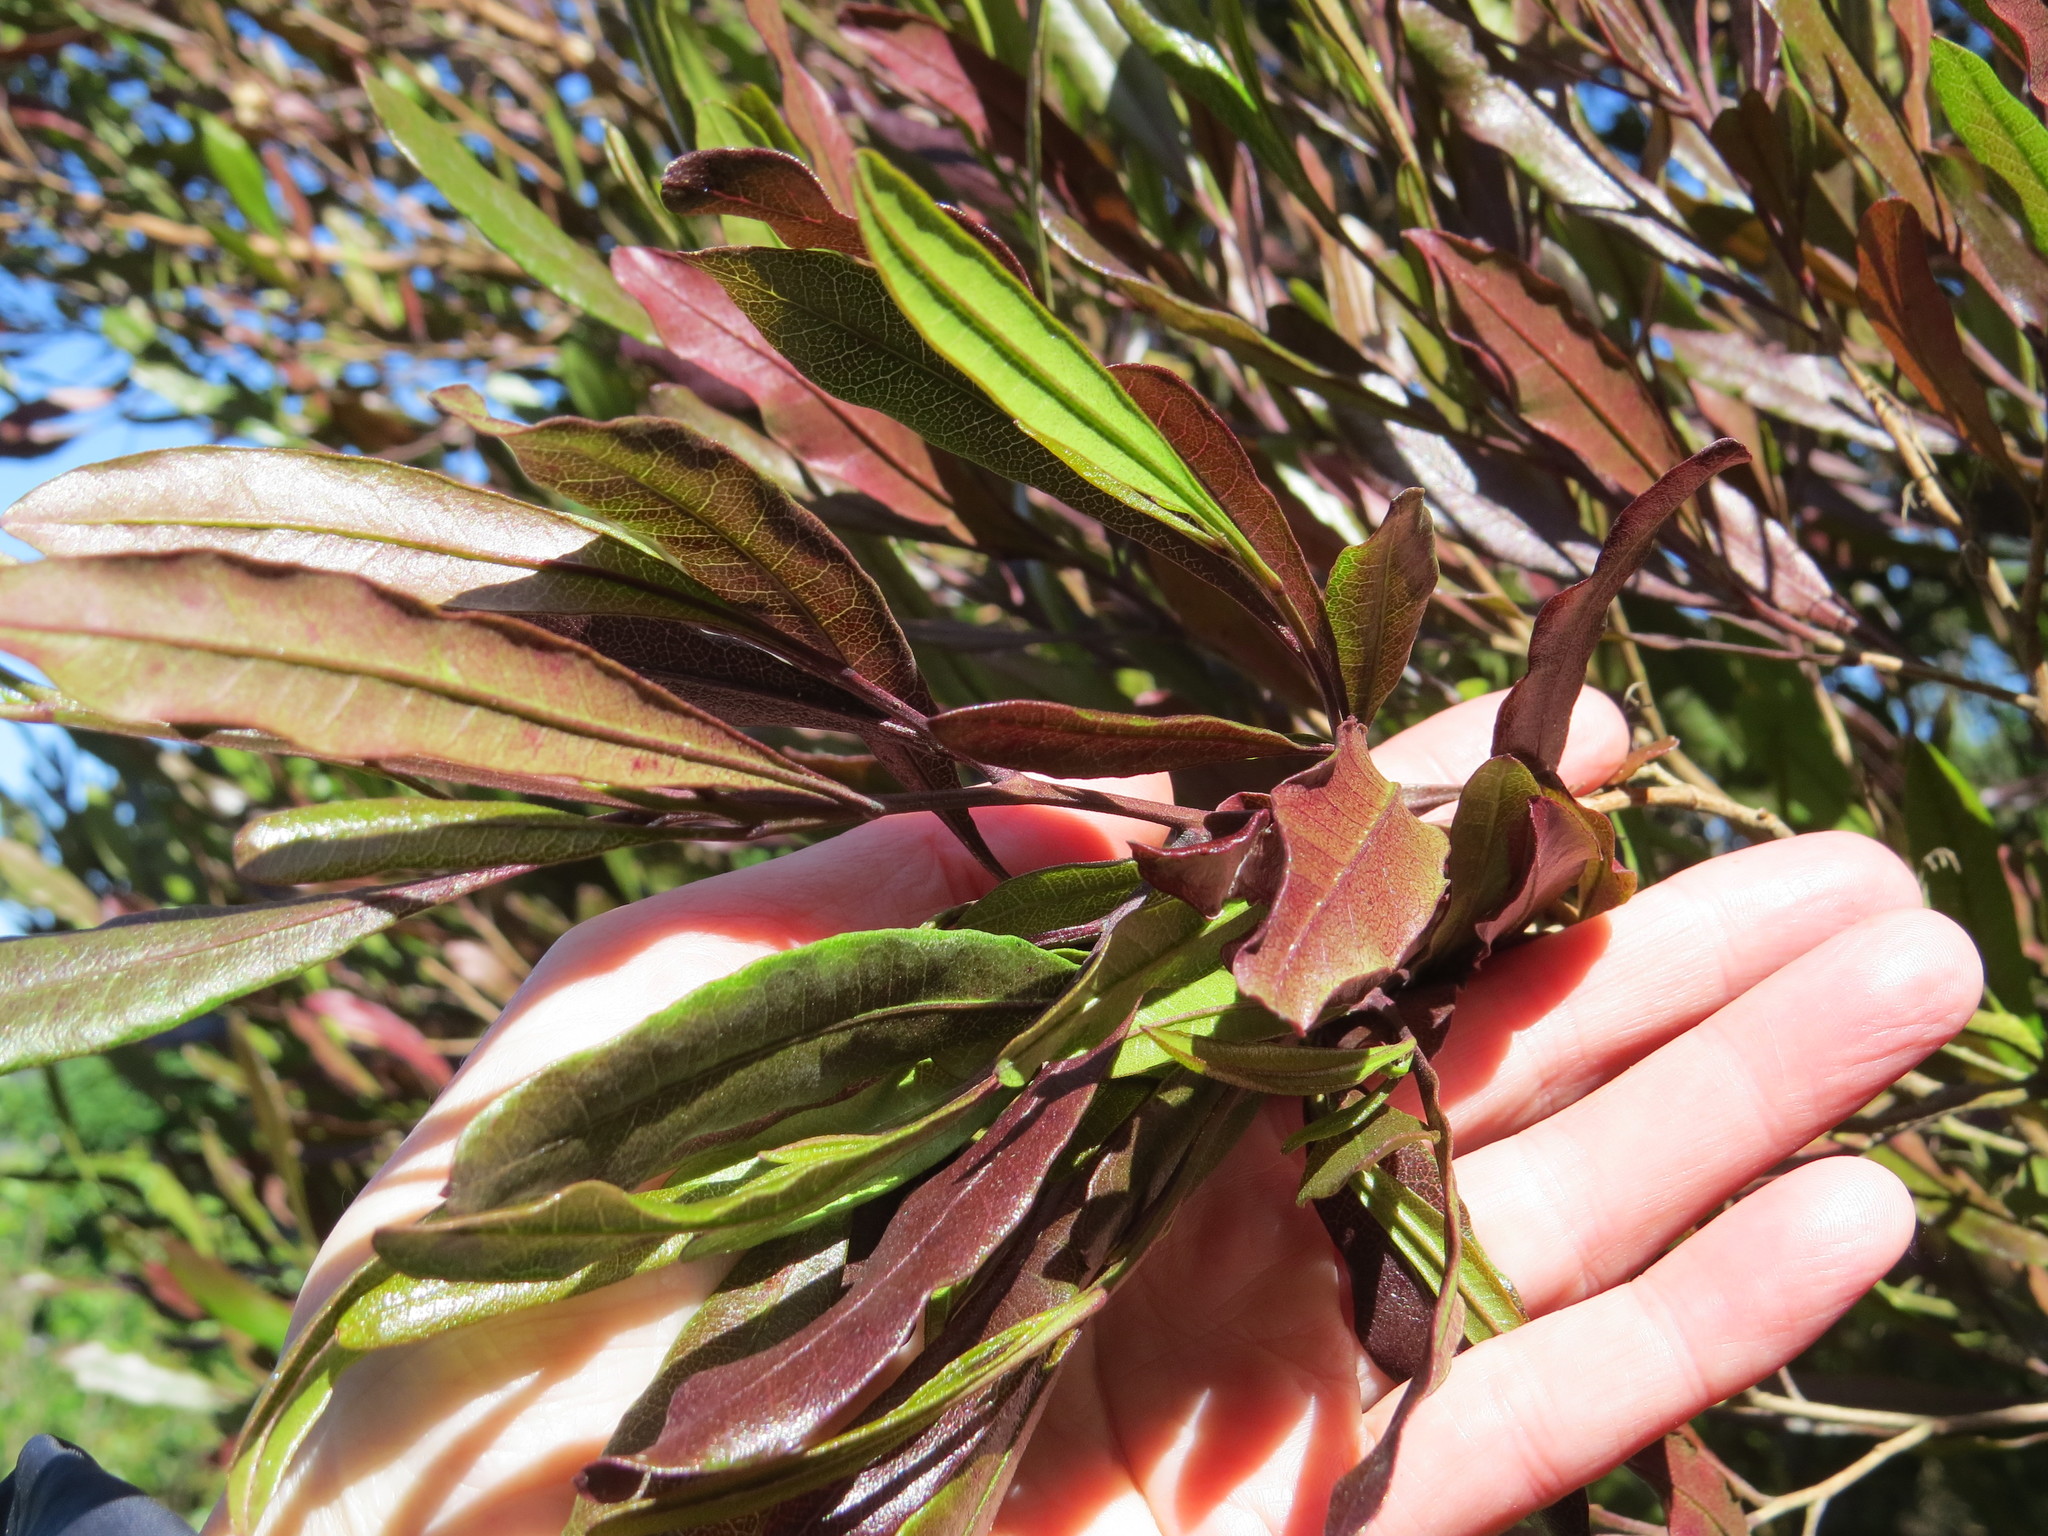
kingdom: Plantae
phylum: Tracheophyta
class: Magnoliopsida
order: Sapindales
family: Sapindaceae
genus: Dodonaea
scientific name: Dodonaea viscosa
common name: Hopbush
